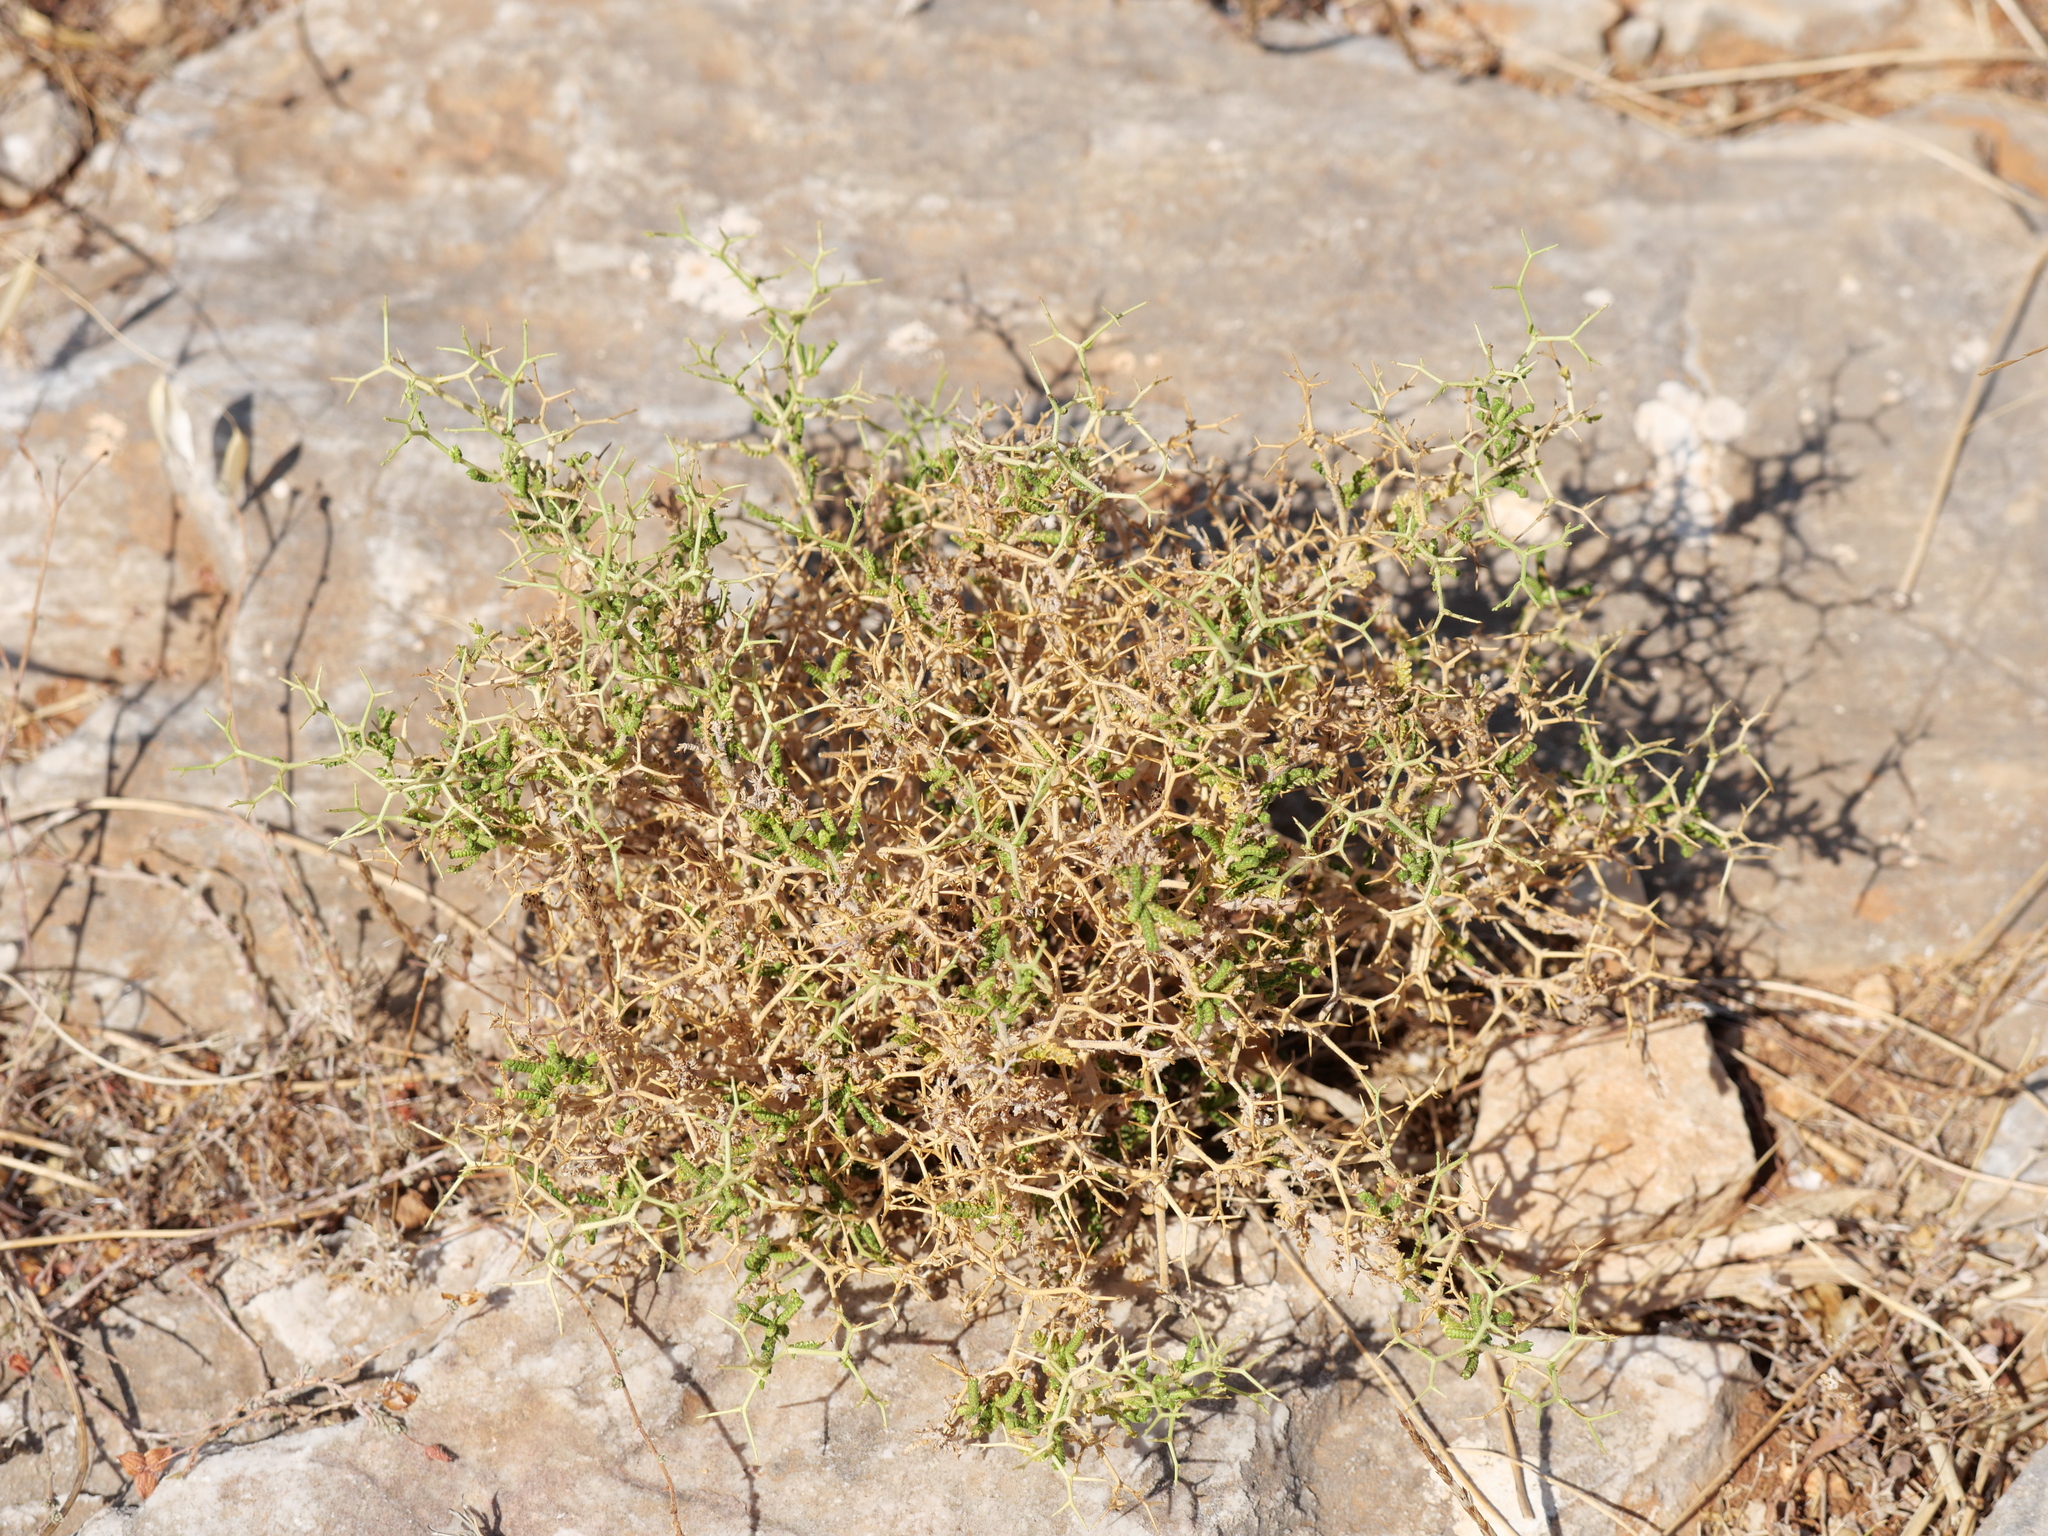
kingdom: Plantae
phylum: Tracheophyta
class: Magnoliopsida
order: Rosales
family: Rosaceae
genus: Sarcopoterium
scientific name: Sarcopoterium spinosum
